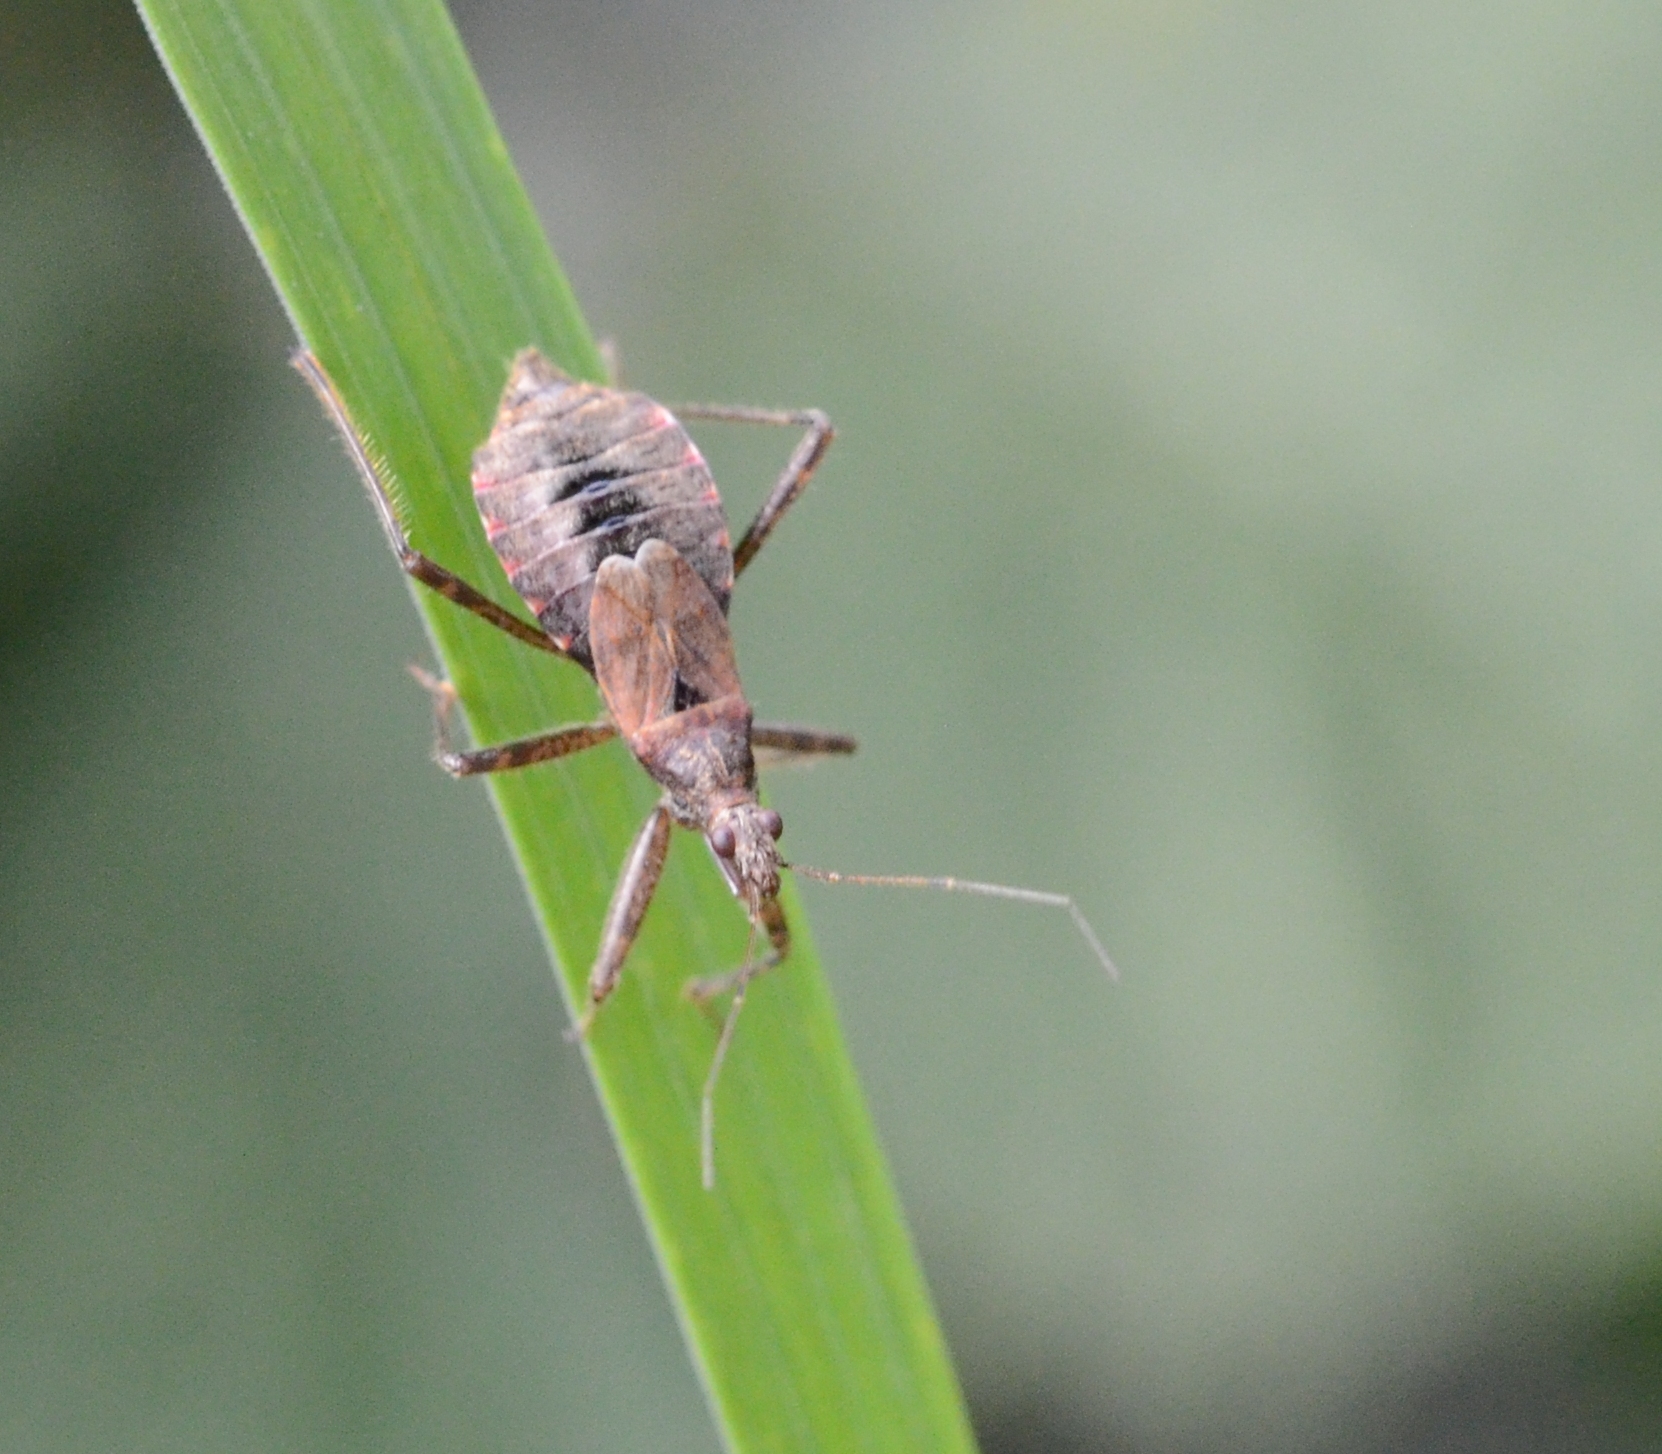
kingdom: Animalia
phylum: Arthropoda
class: Insecta
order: Hemiptera
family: Nabidae
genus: Himacerus
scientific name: Himacerus apterus
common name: Tree damsel bug
